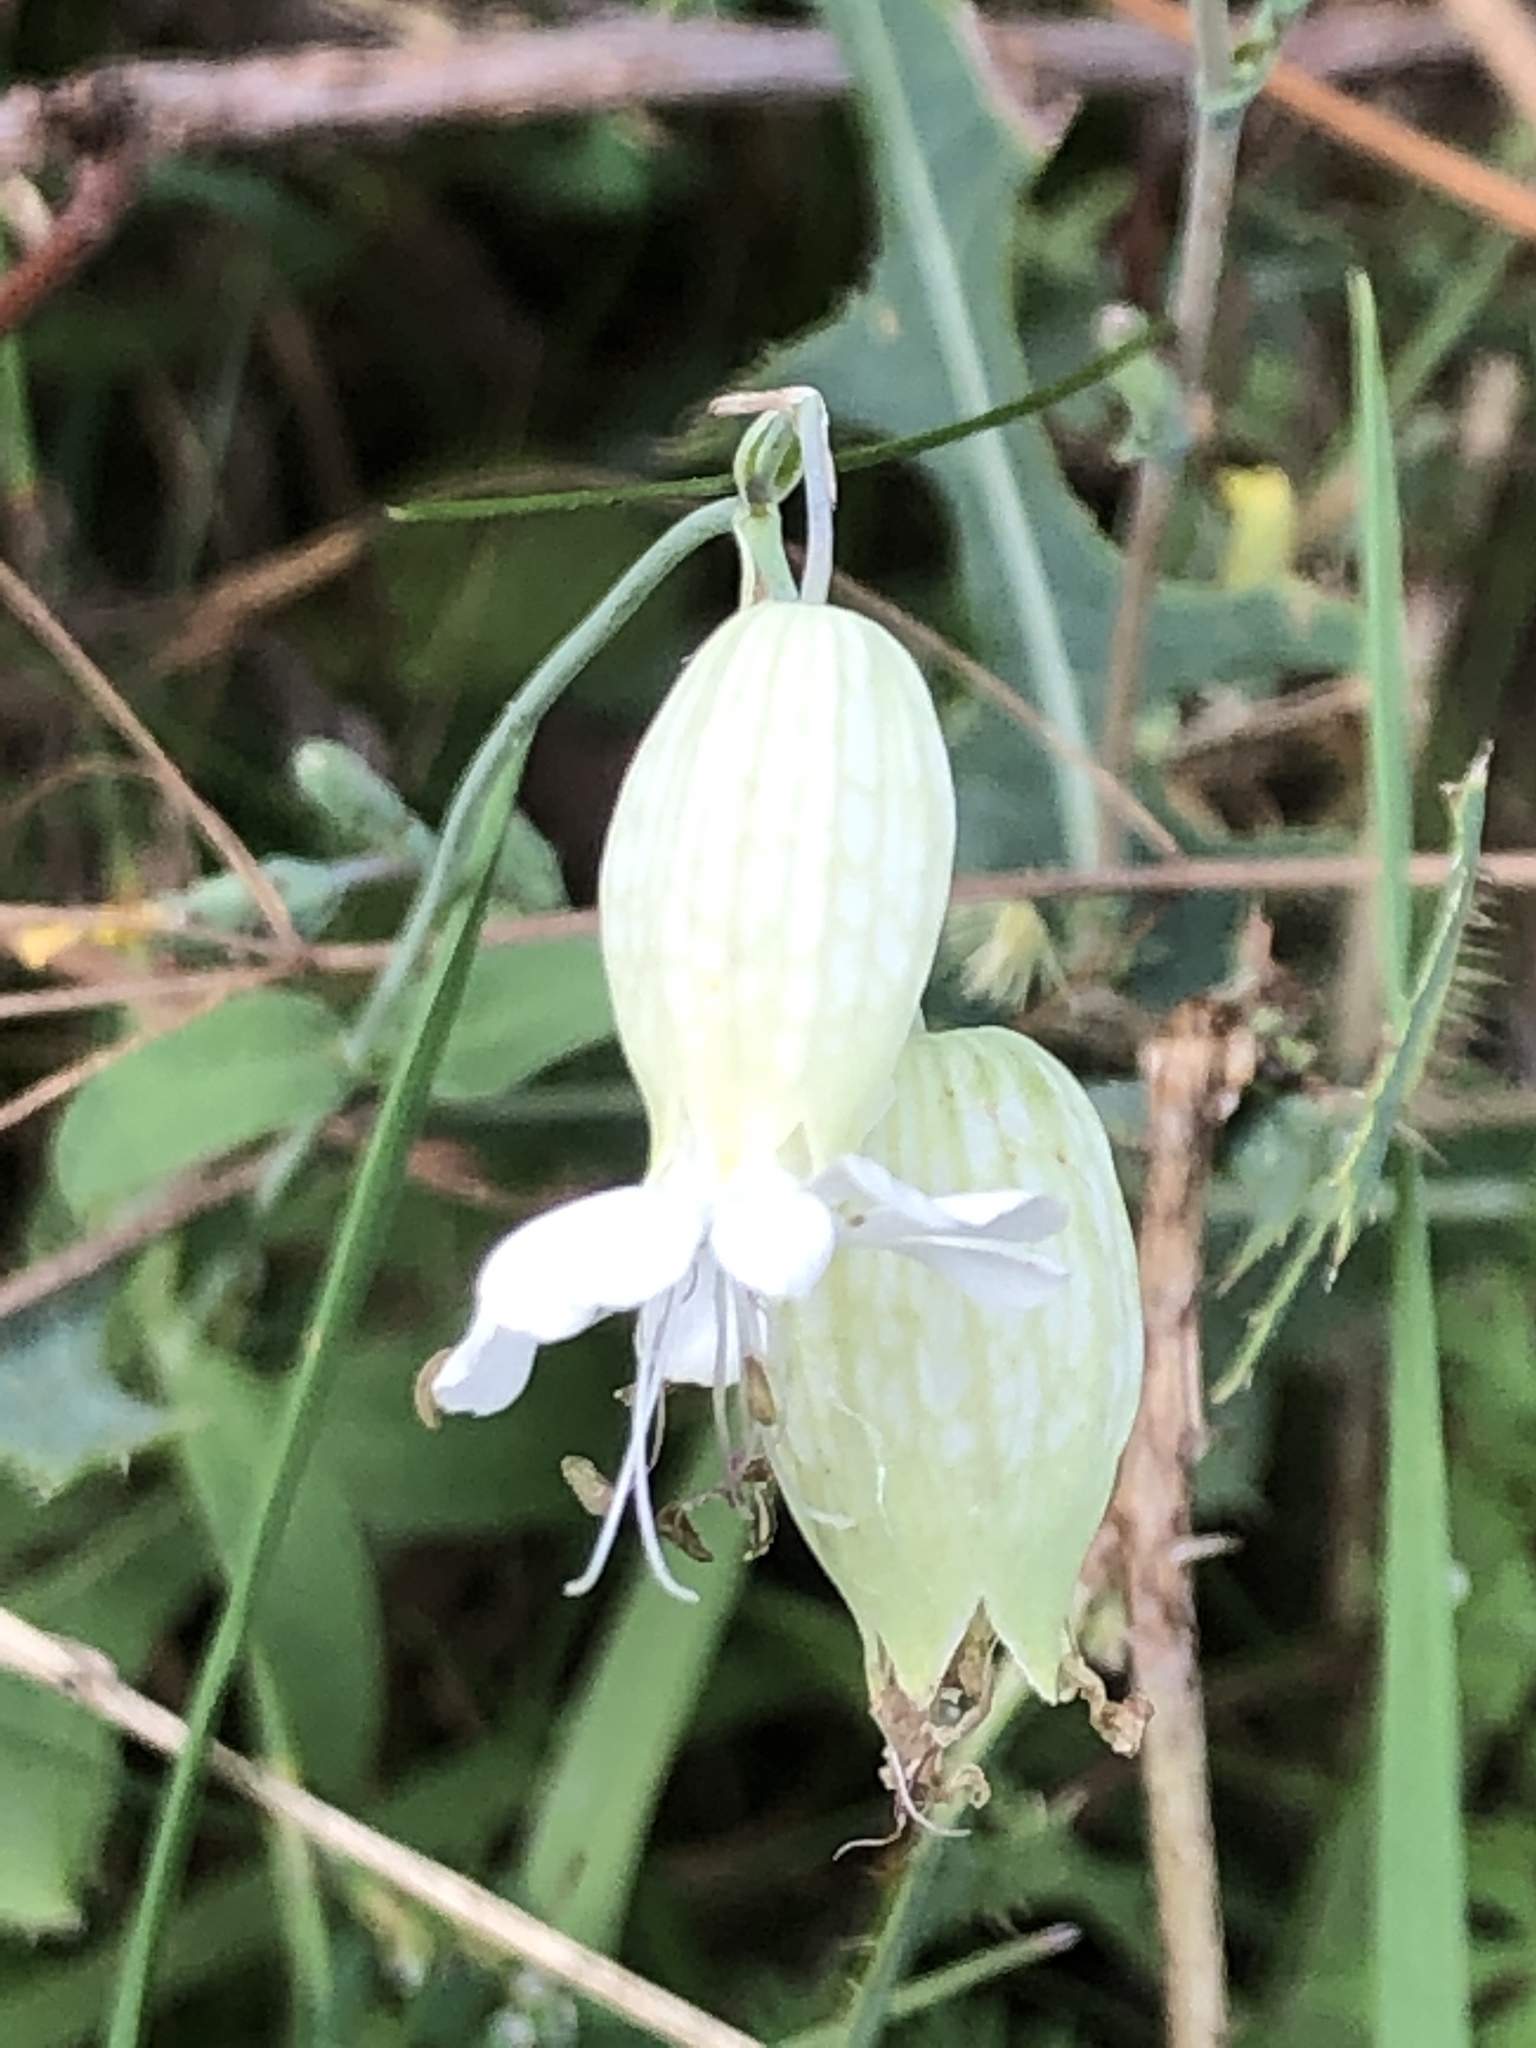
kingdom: Plantae
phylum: Tracheophyta
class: Magnoliopsida
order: Caryophyllales
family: Caryophyllaceae
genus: Silene
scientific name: Silene vulgaris
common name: Bladder campion
